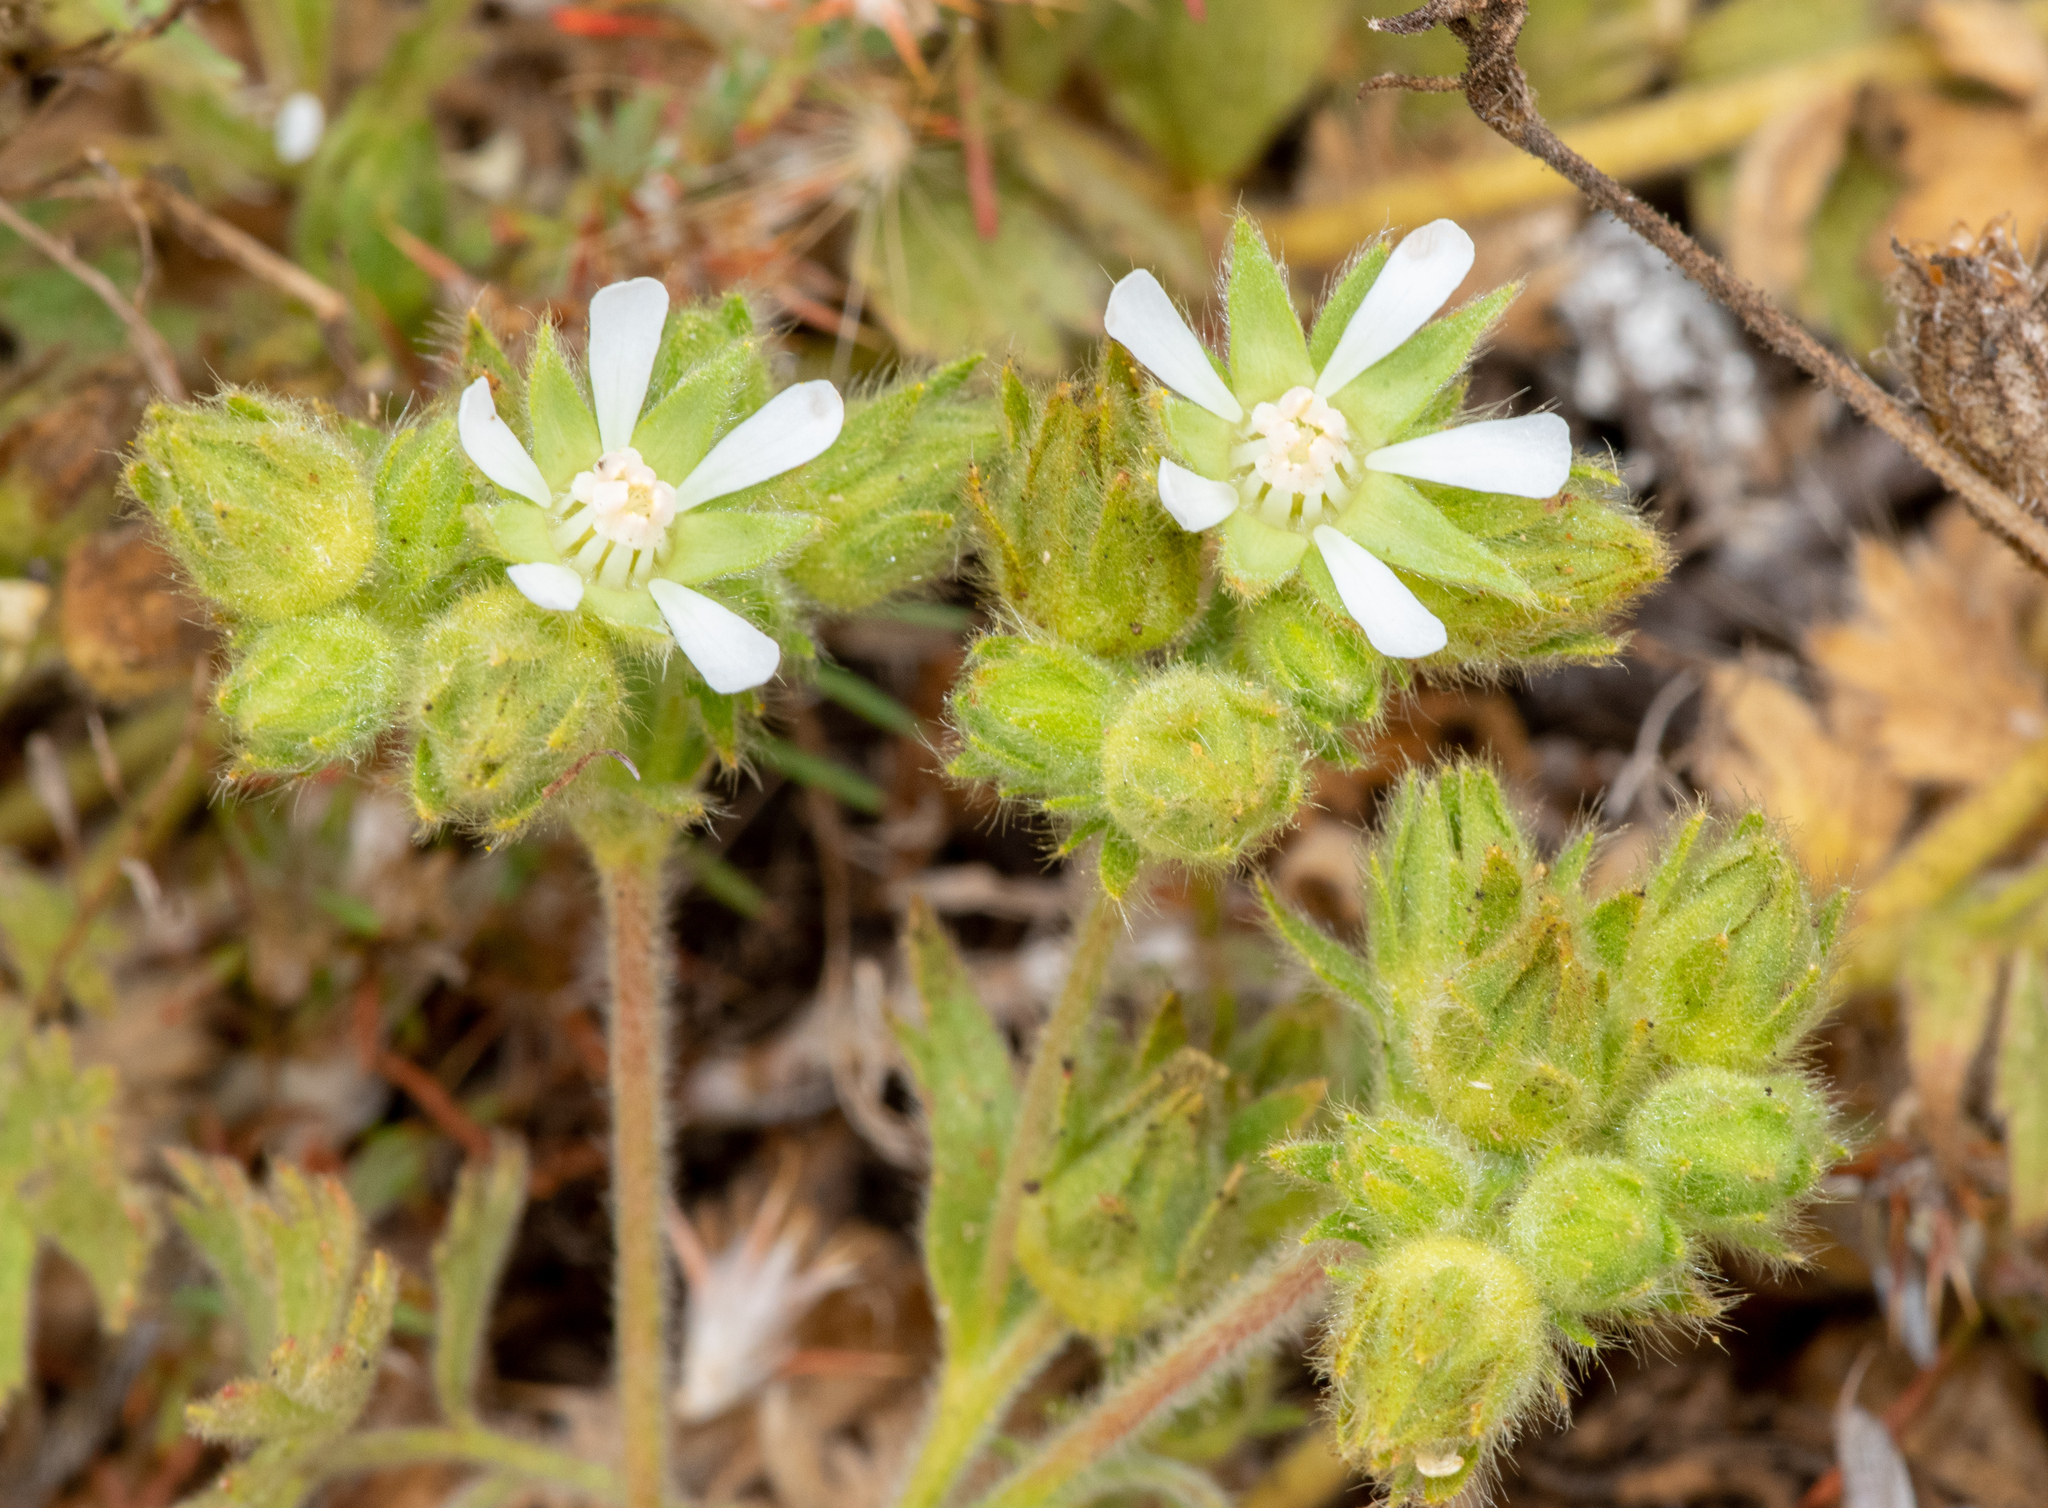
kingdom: Plantae
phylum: Tracheophyta
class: Magnoliopsida
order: Rosales
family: Rosaceae
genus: Potentilla
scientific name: Potentilla marinensis
